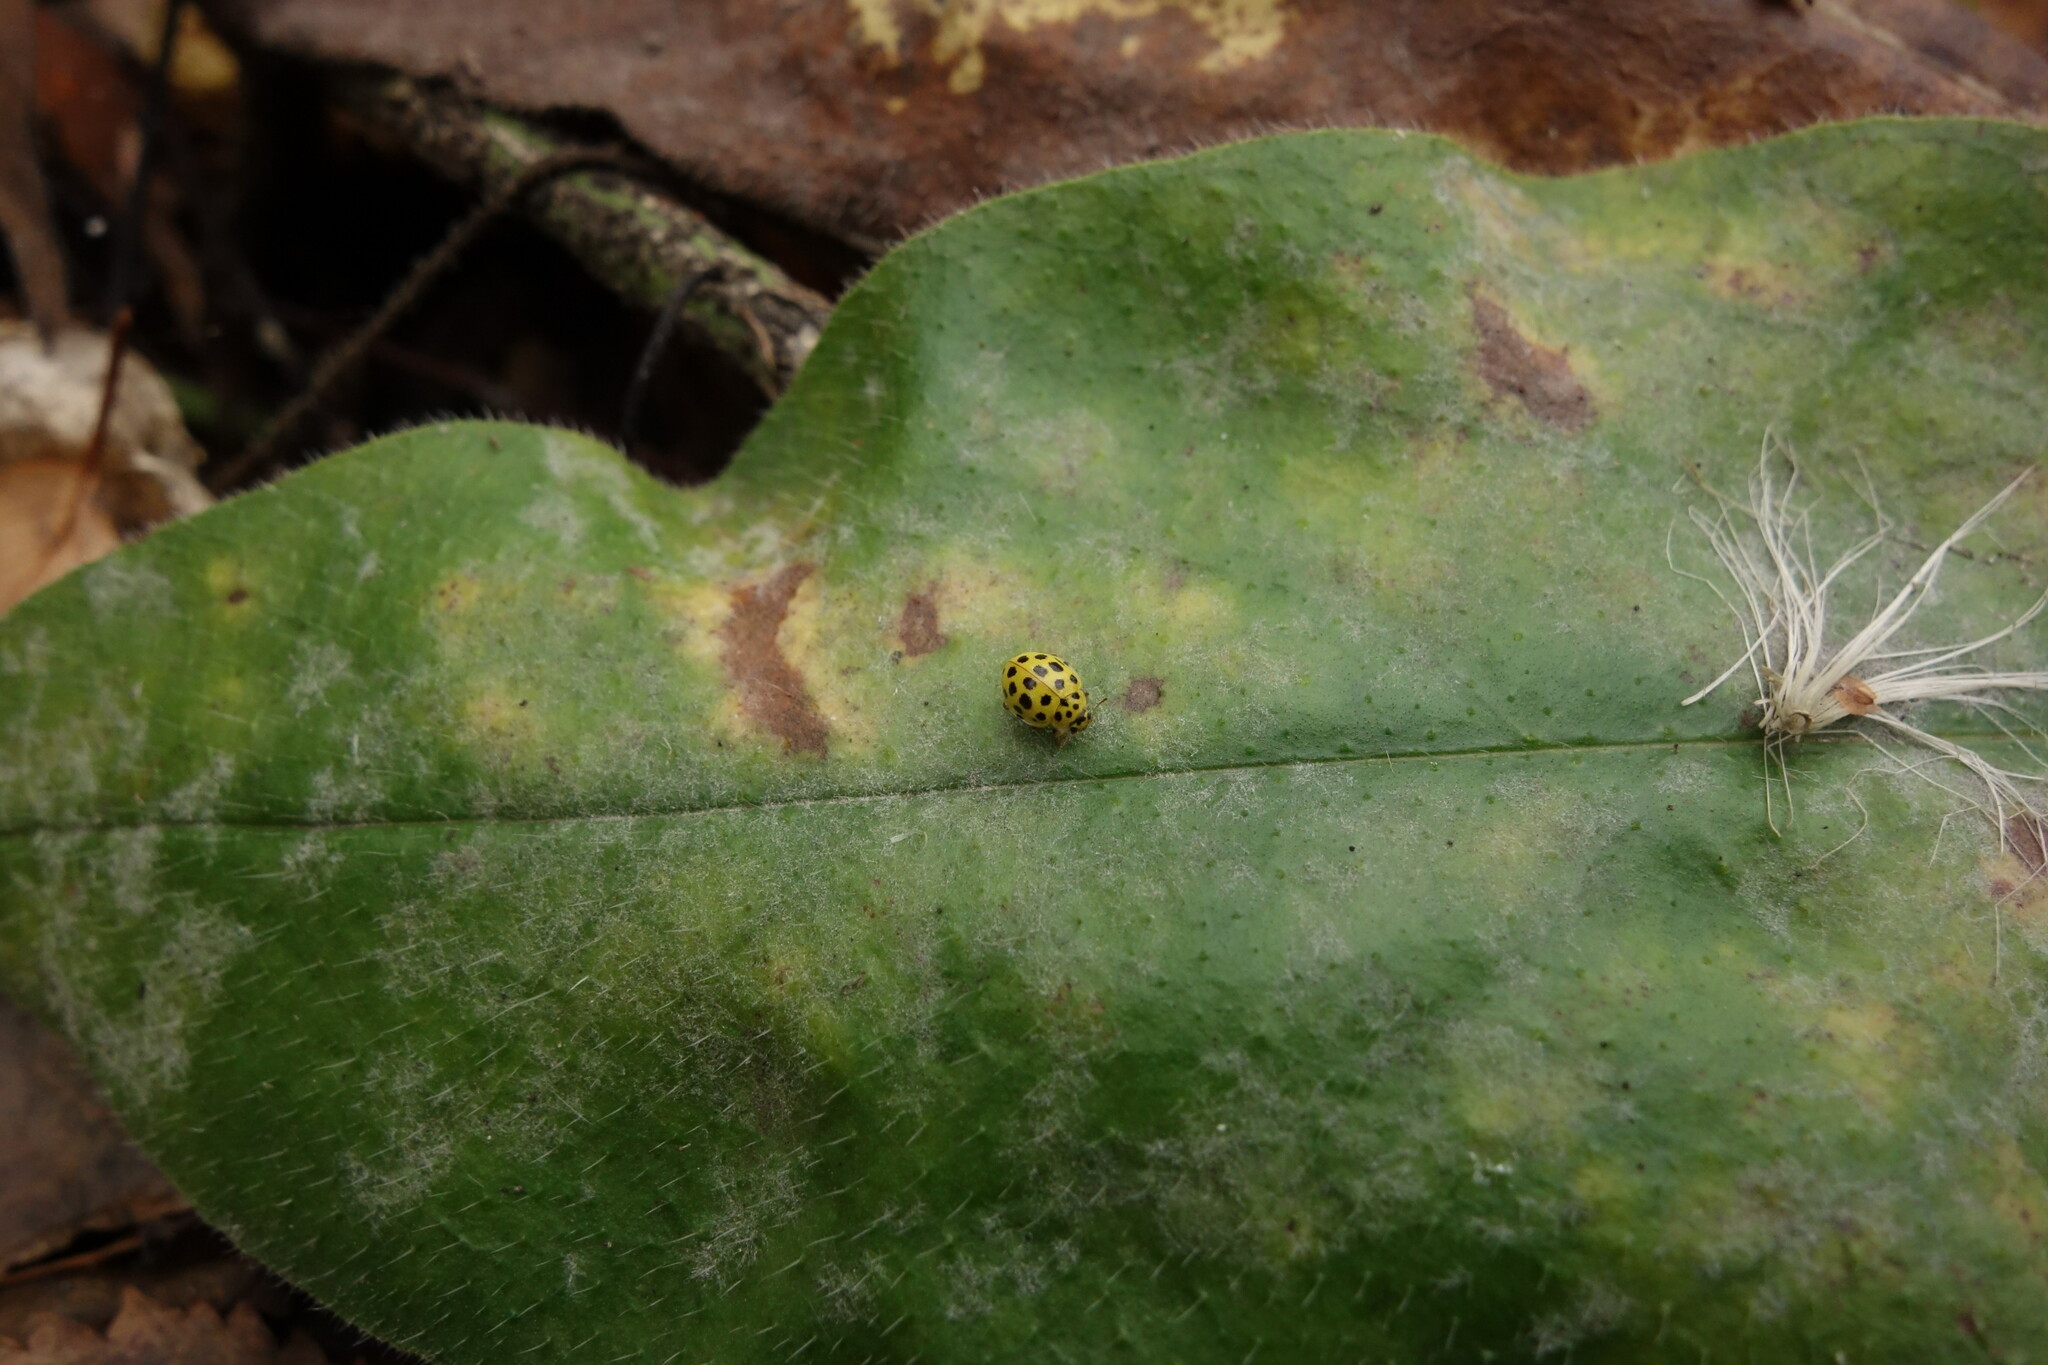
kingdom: Animalia
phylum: Arthropoda
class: Insecta
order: Coleoptera
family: Coccinellidae
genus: Psyllobora
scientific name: Psyllobora vigintiduopunctata
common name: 22-spot ladybird
